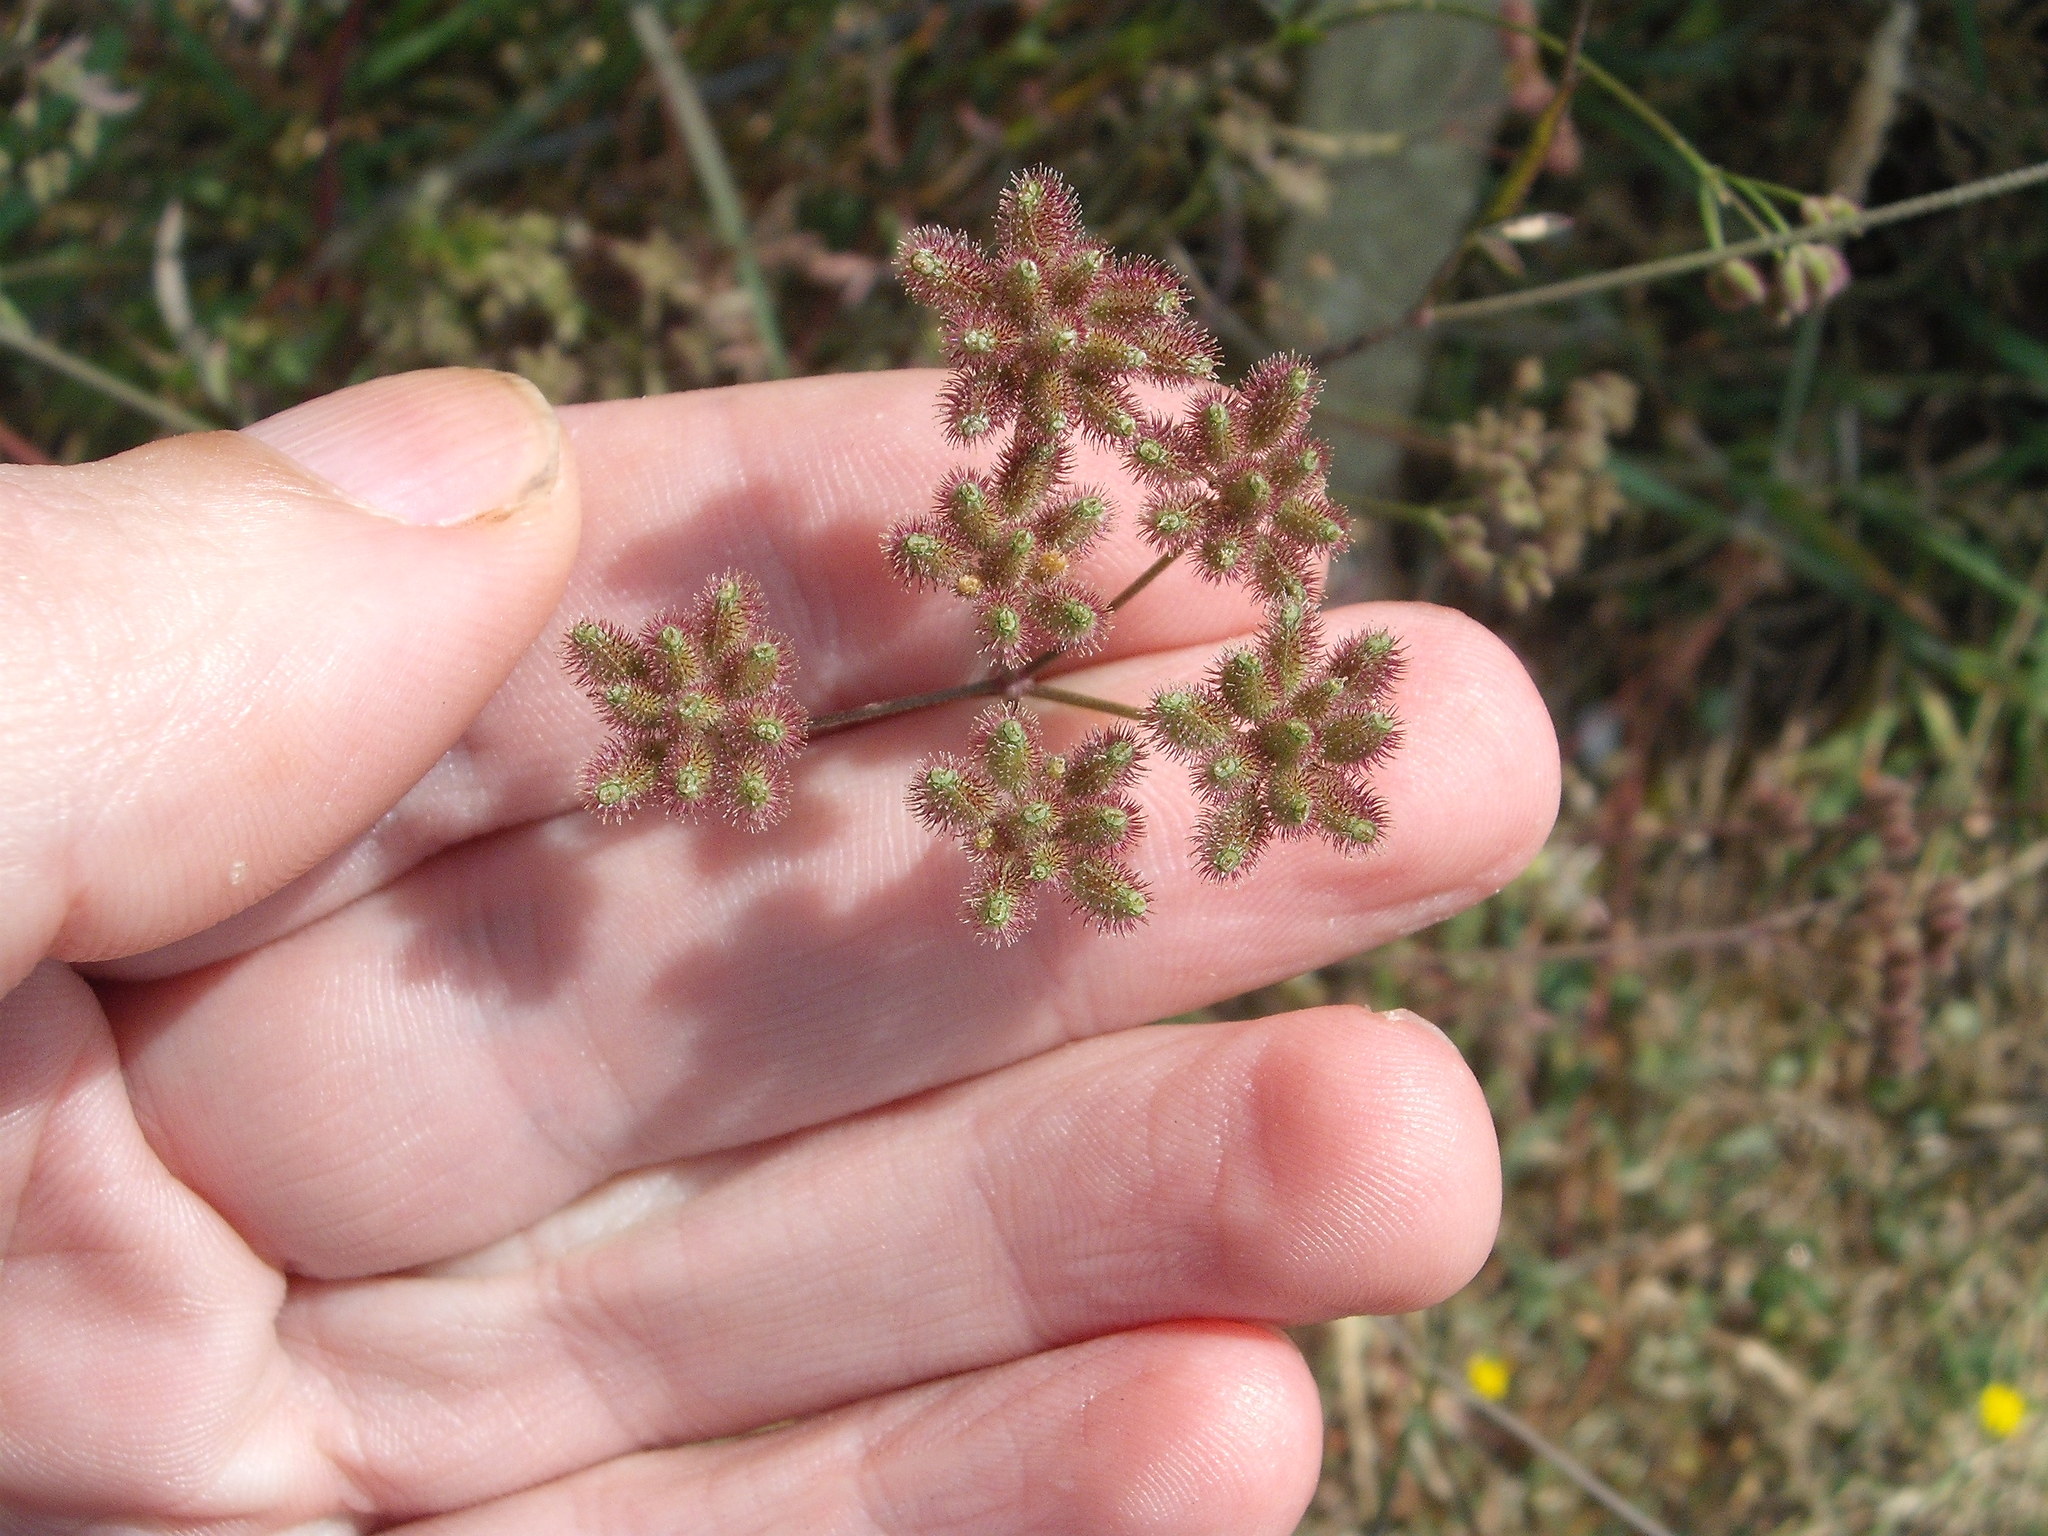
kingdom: Plantae
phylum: Tracheophyta
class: Magnoliopsida
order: Apiales
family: Apiaceae
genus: Torilis
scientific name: Torilis arvensis
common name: Spreading hedge-parsley
